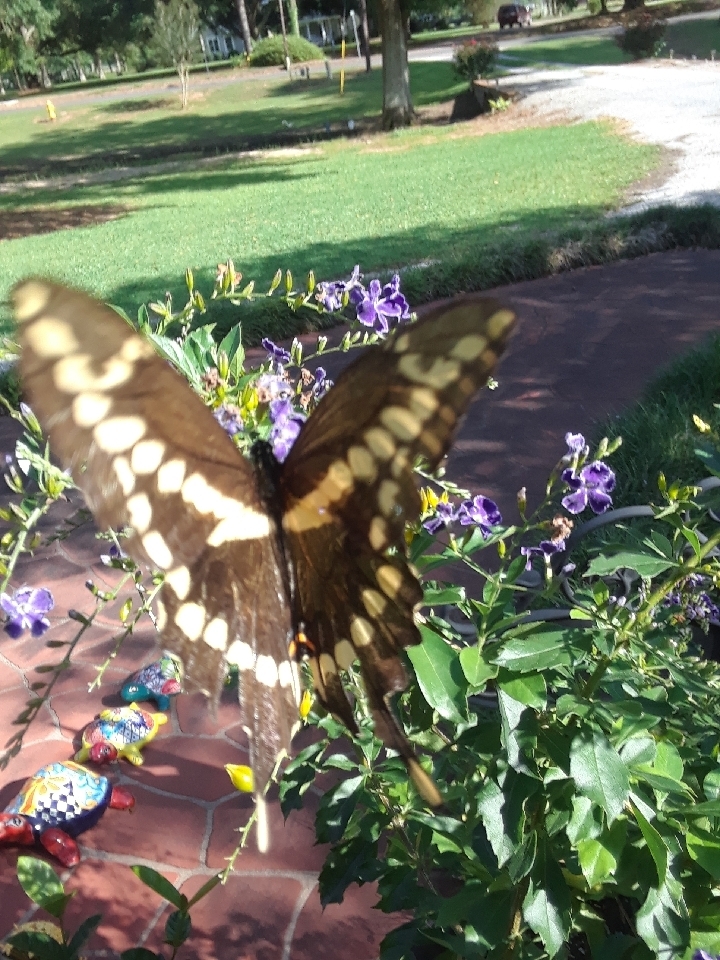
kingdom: Animalia
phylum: Arthropoda
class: Insecta
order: Lepidoptera
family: Papilionidae
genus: Papilio
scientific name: Papilio cresphontes
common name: Giant swallowtail
